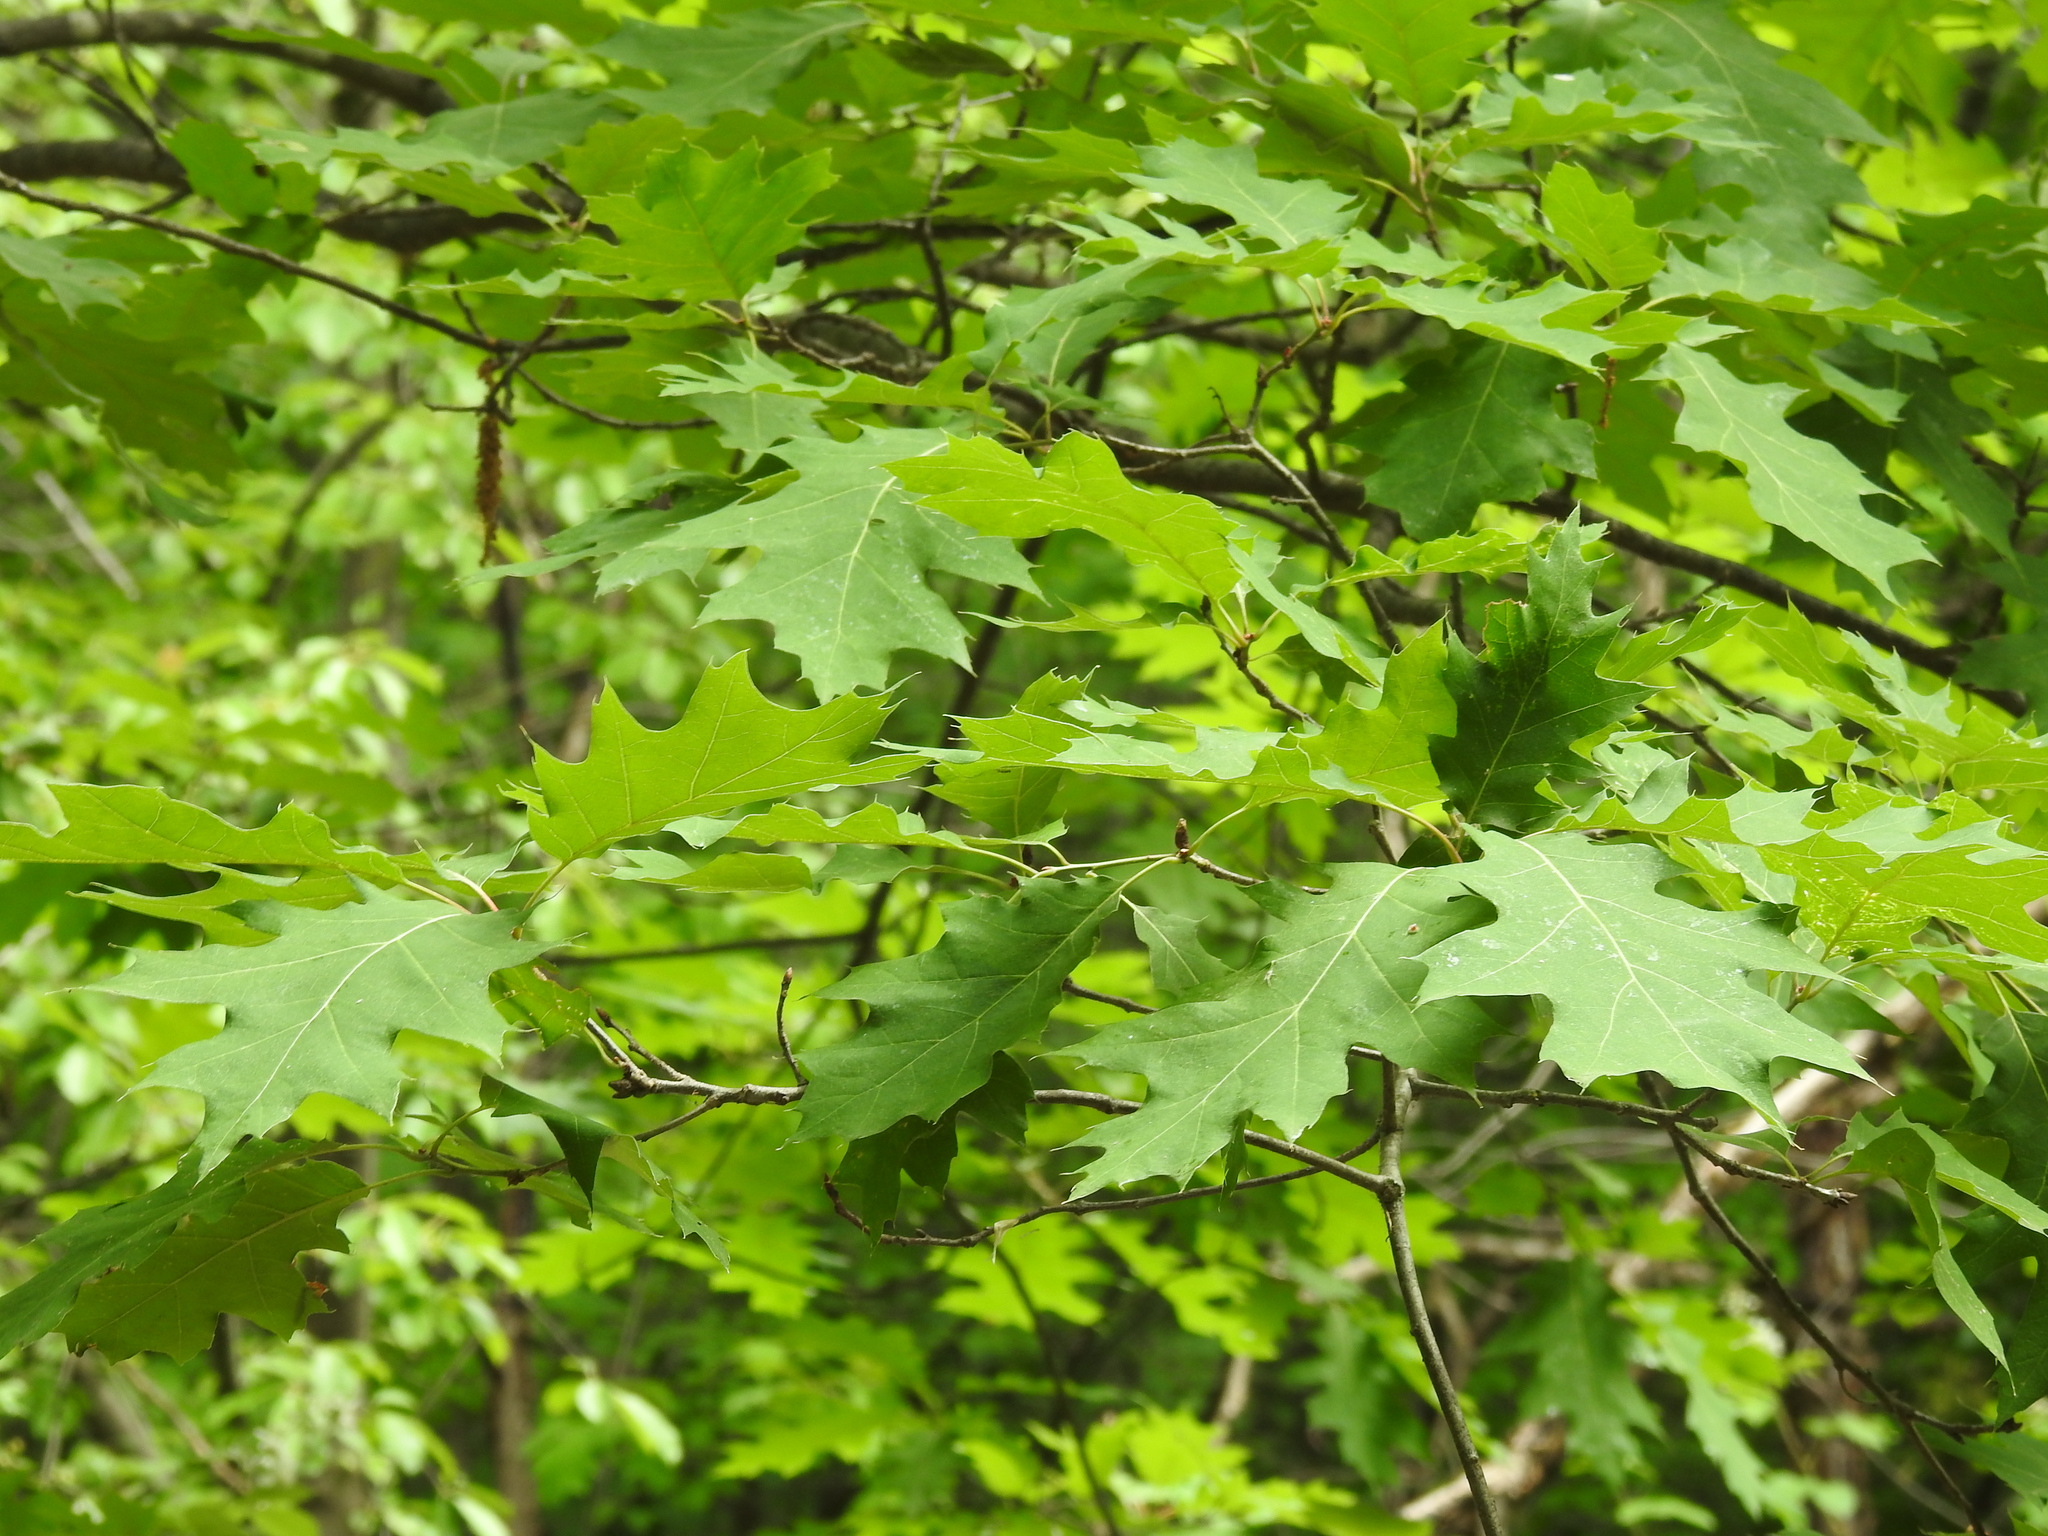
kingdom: Plantae
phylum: Tracheophyta
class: Magnoliopsida
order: Fagales
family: Fagaceae
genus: Quercus
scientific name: Quercus rubra
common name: Red oak
